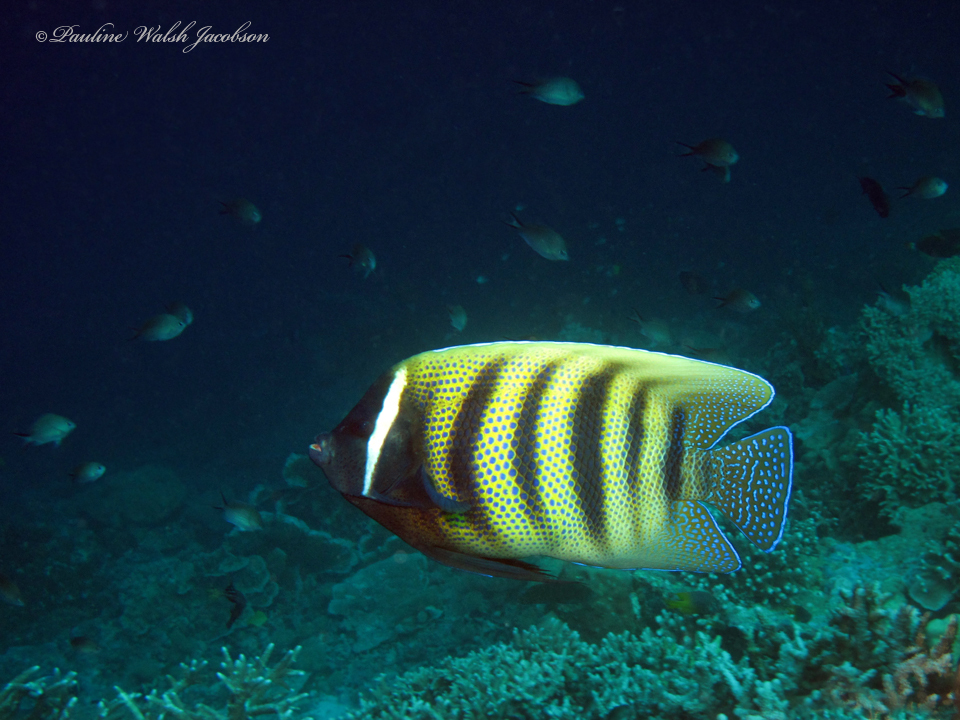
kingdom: Animalia
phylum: Chordata
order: Perciformes
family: Pomacanthidae
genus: Pomacanthus
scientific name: Pomacanthus sexstriatus
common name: Six-banded angelfish
